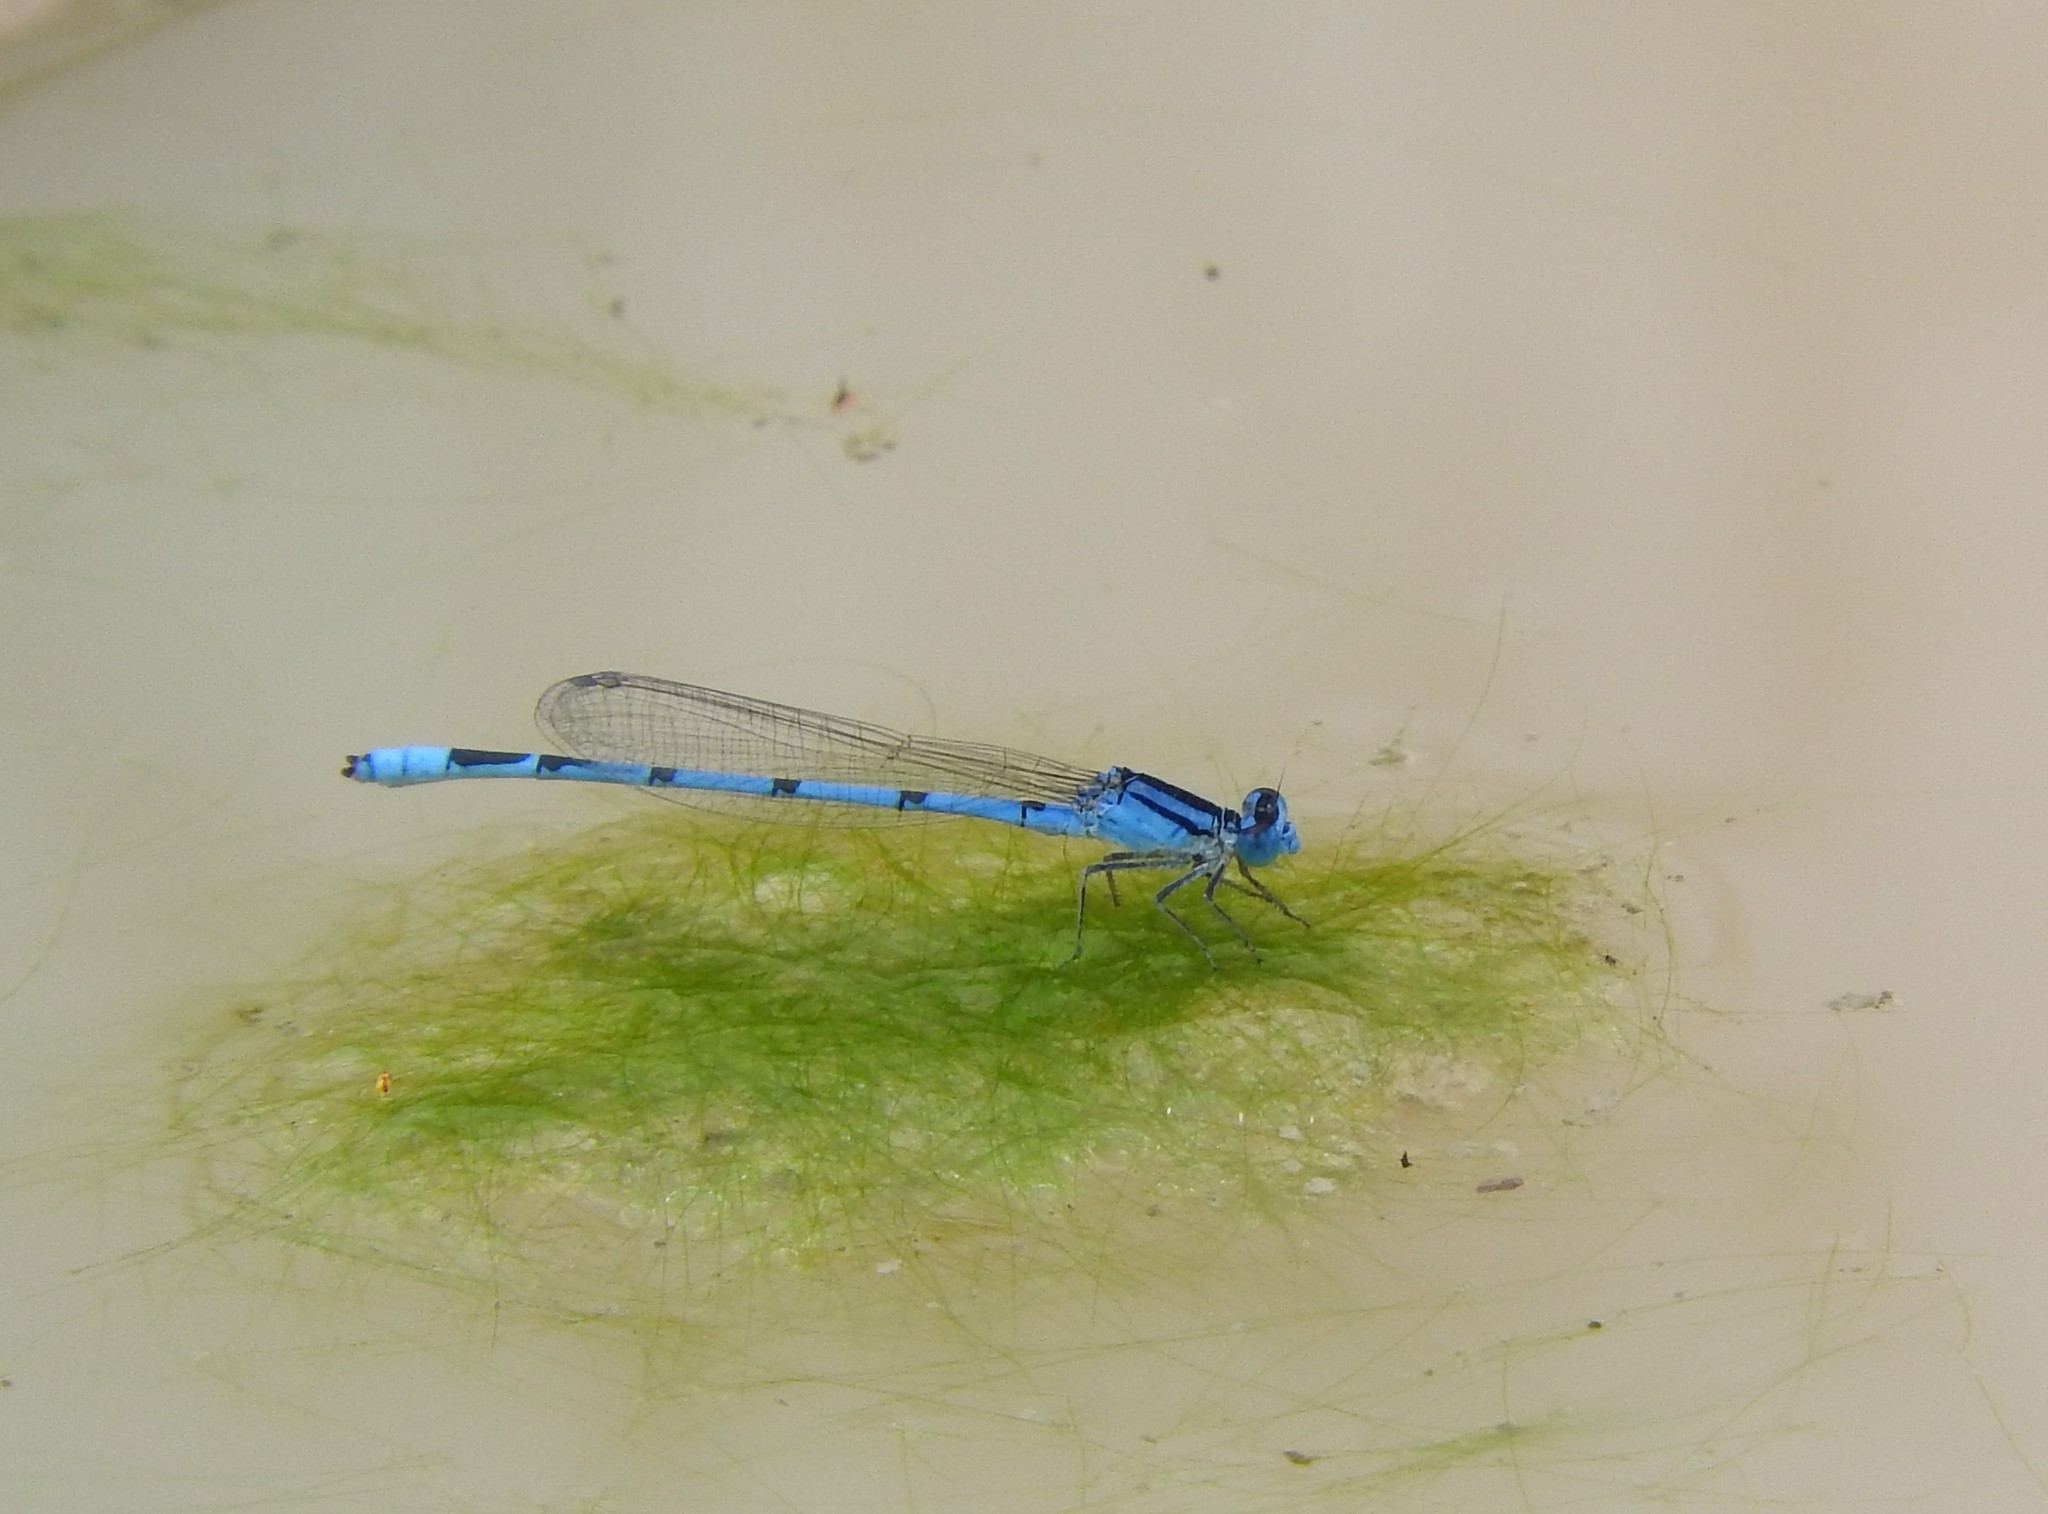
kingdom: Animalia
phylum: Arthropoda
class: Insecta
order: Odonata
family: Coenagrionidae
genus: Enallagma
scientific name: Enallagma civile
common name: Damselfly
